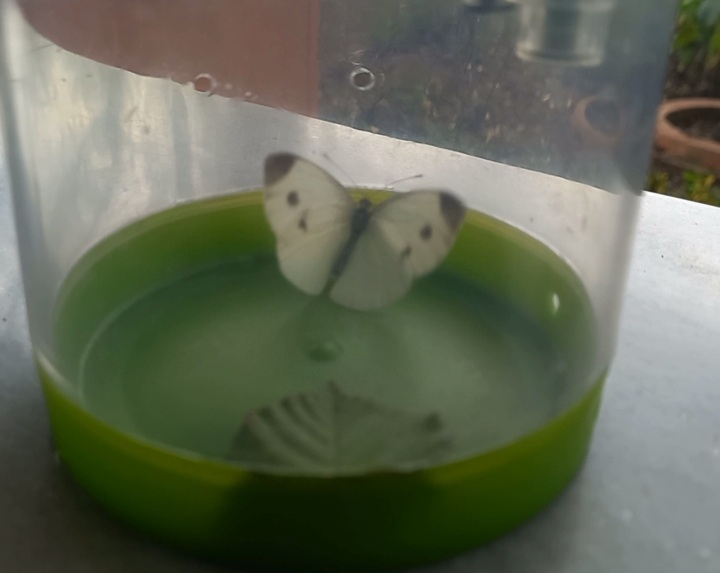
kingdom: Animalia
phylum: Arthropoda
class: Insecta
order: Lepidoptera
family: Pieridae
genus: Pieris
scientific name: Pieris mannii
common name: Southern small white
